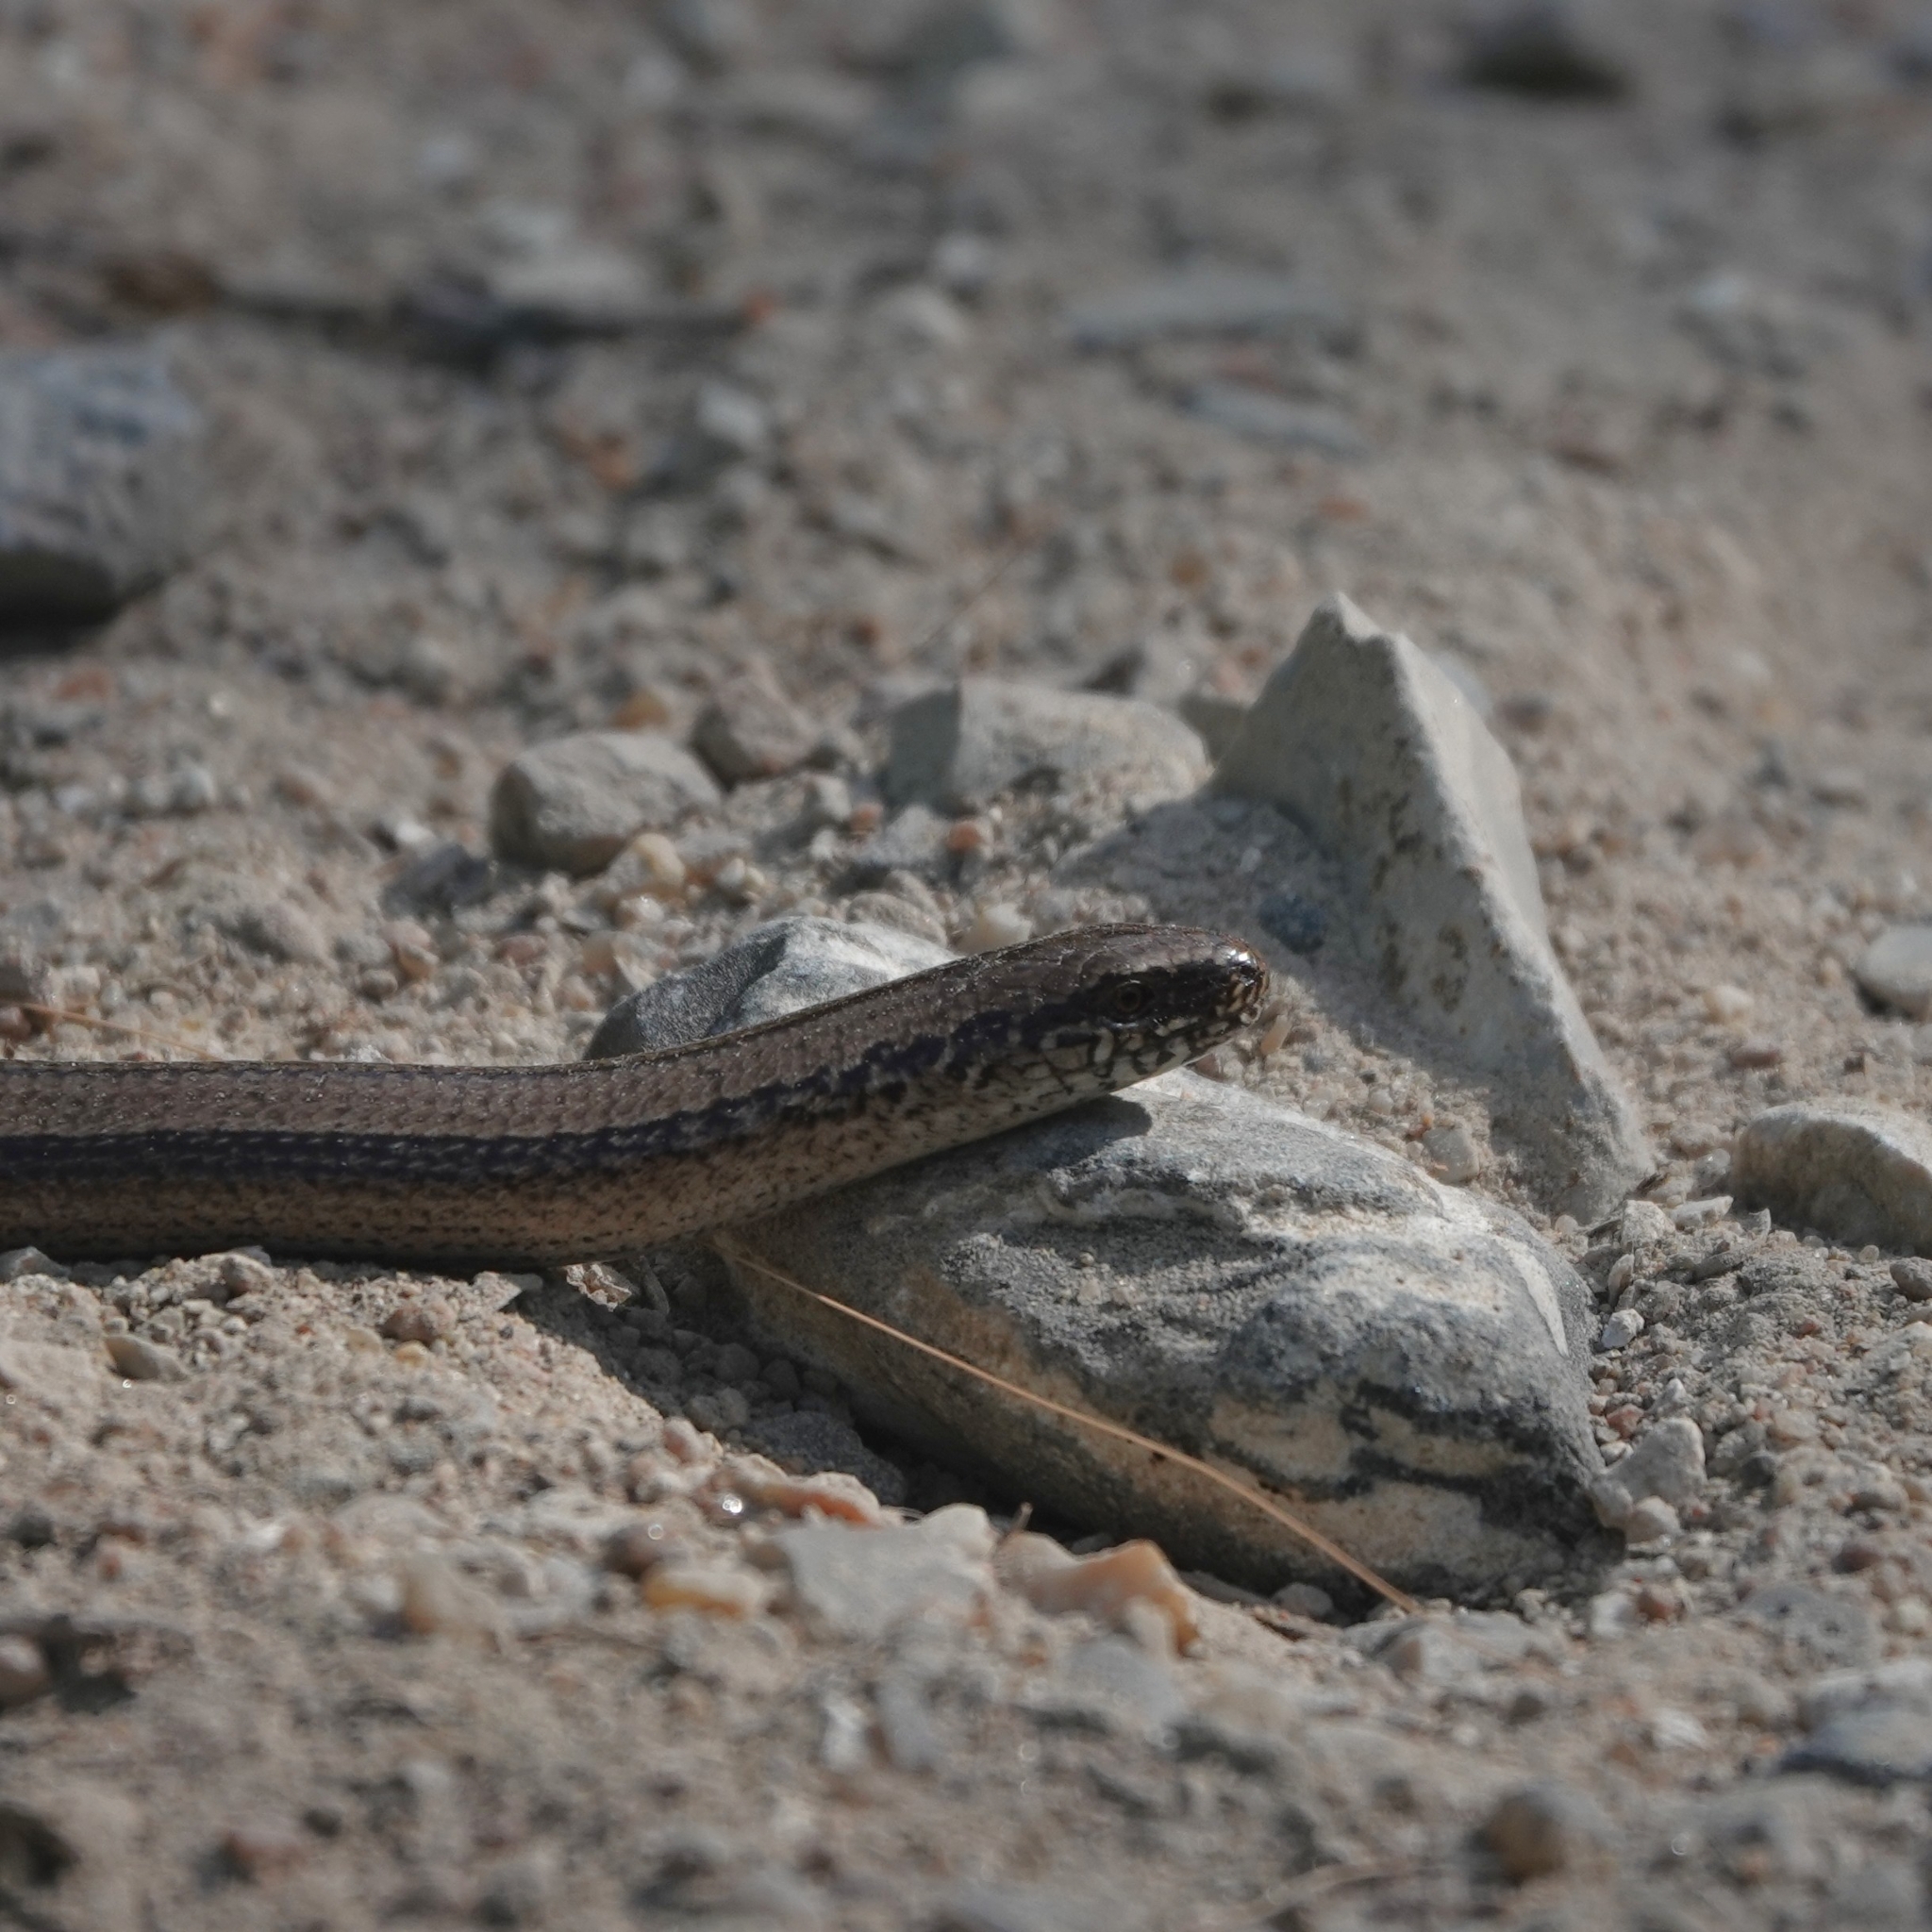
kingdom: Animalia
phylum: Chordata
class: Squamata
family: Anguidae
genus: Anguis
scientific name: Anguis fragilis
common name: Slow worm
